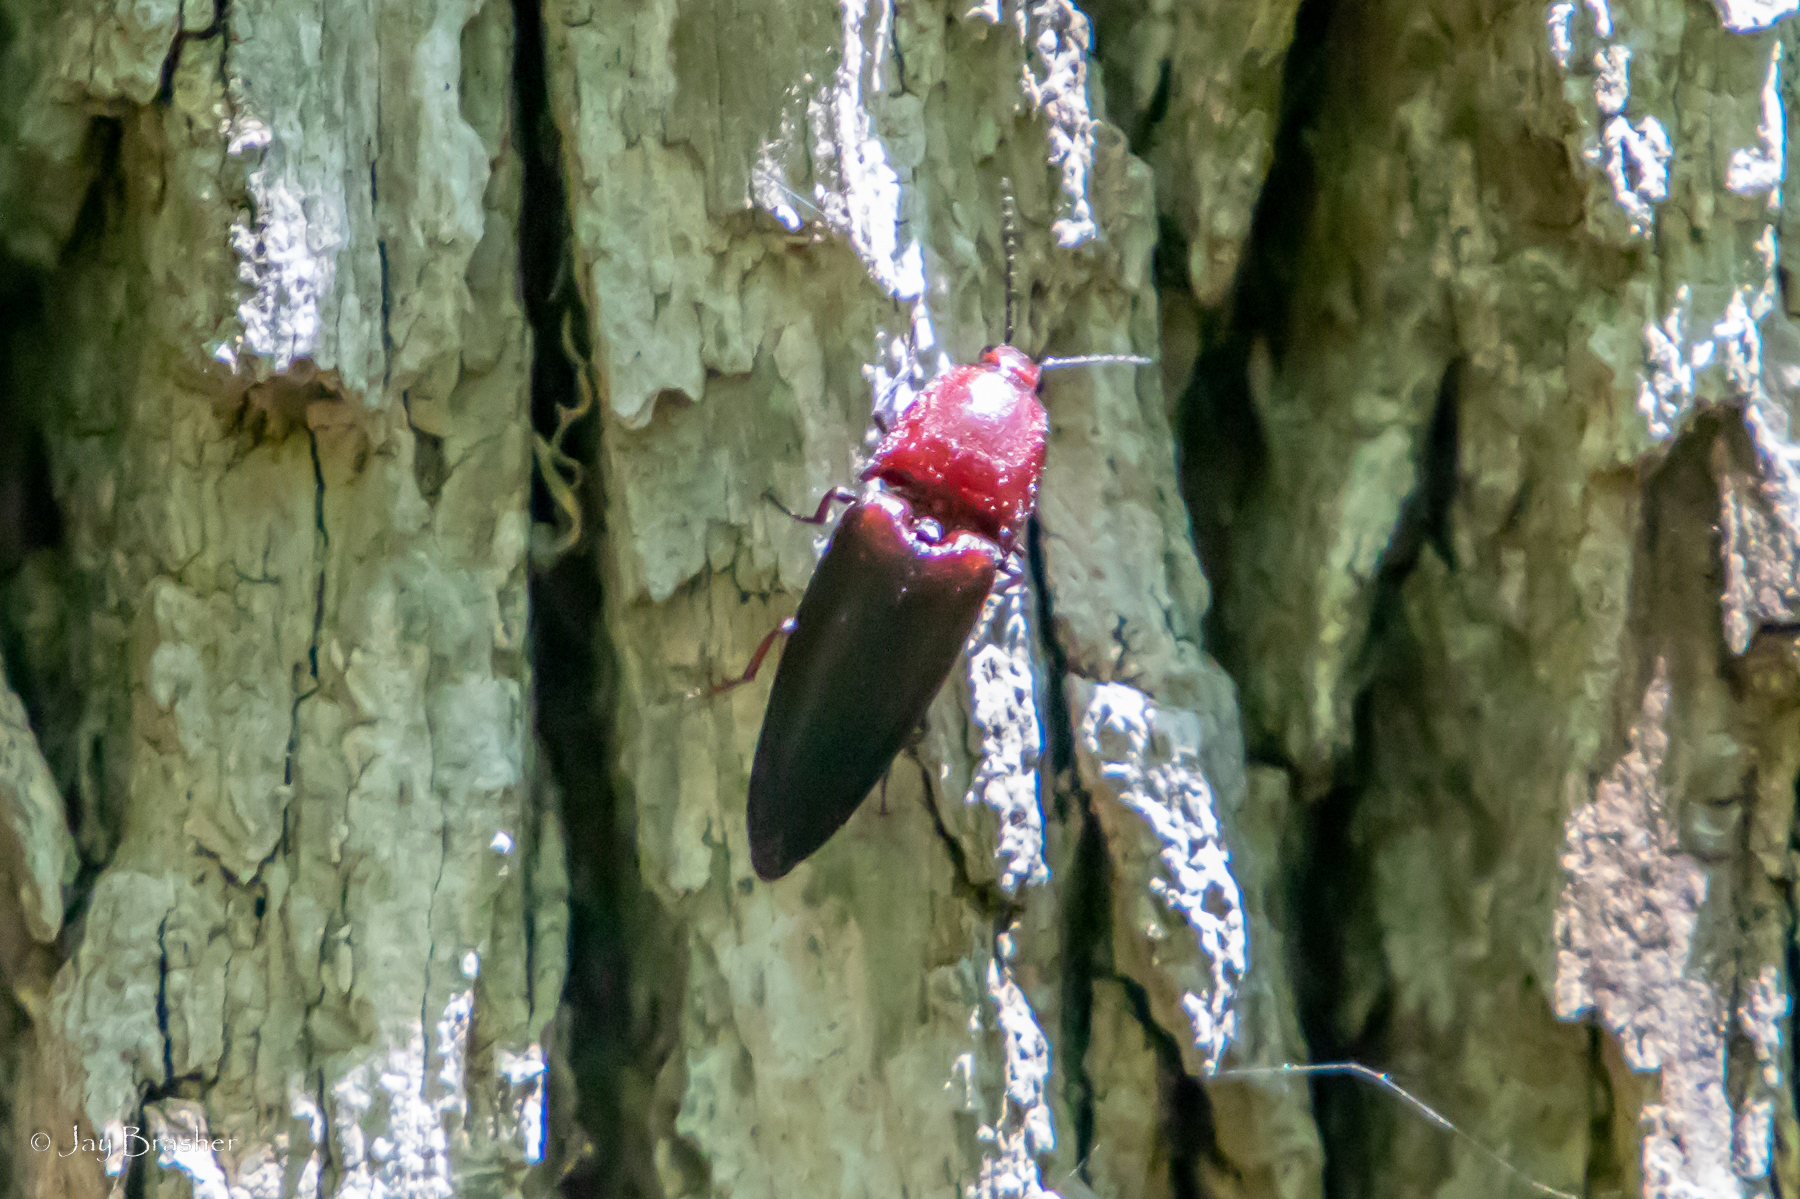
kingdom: Animalia
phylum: Arthropoda
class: Insecta
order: Coleoptera
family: Elateridae
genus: Parallelostethus
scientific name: Parallelostethus attenuatus
